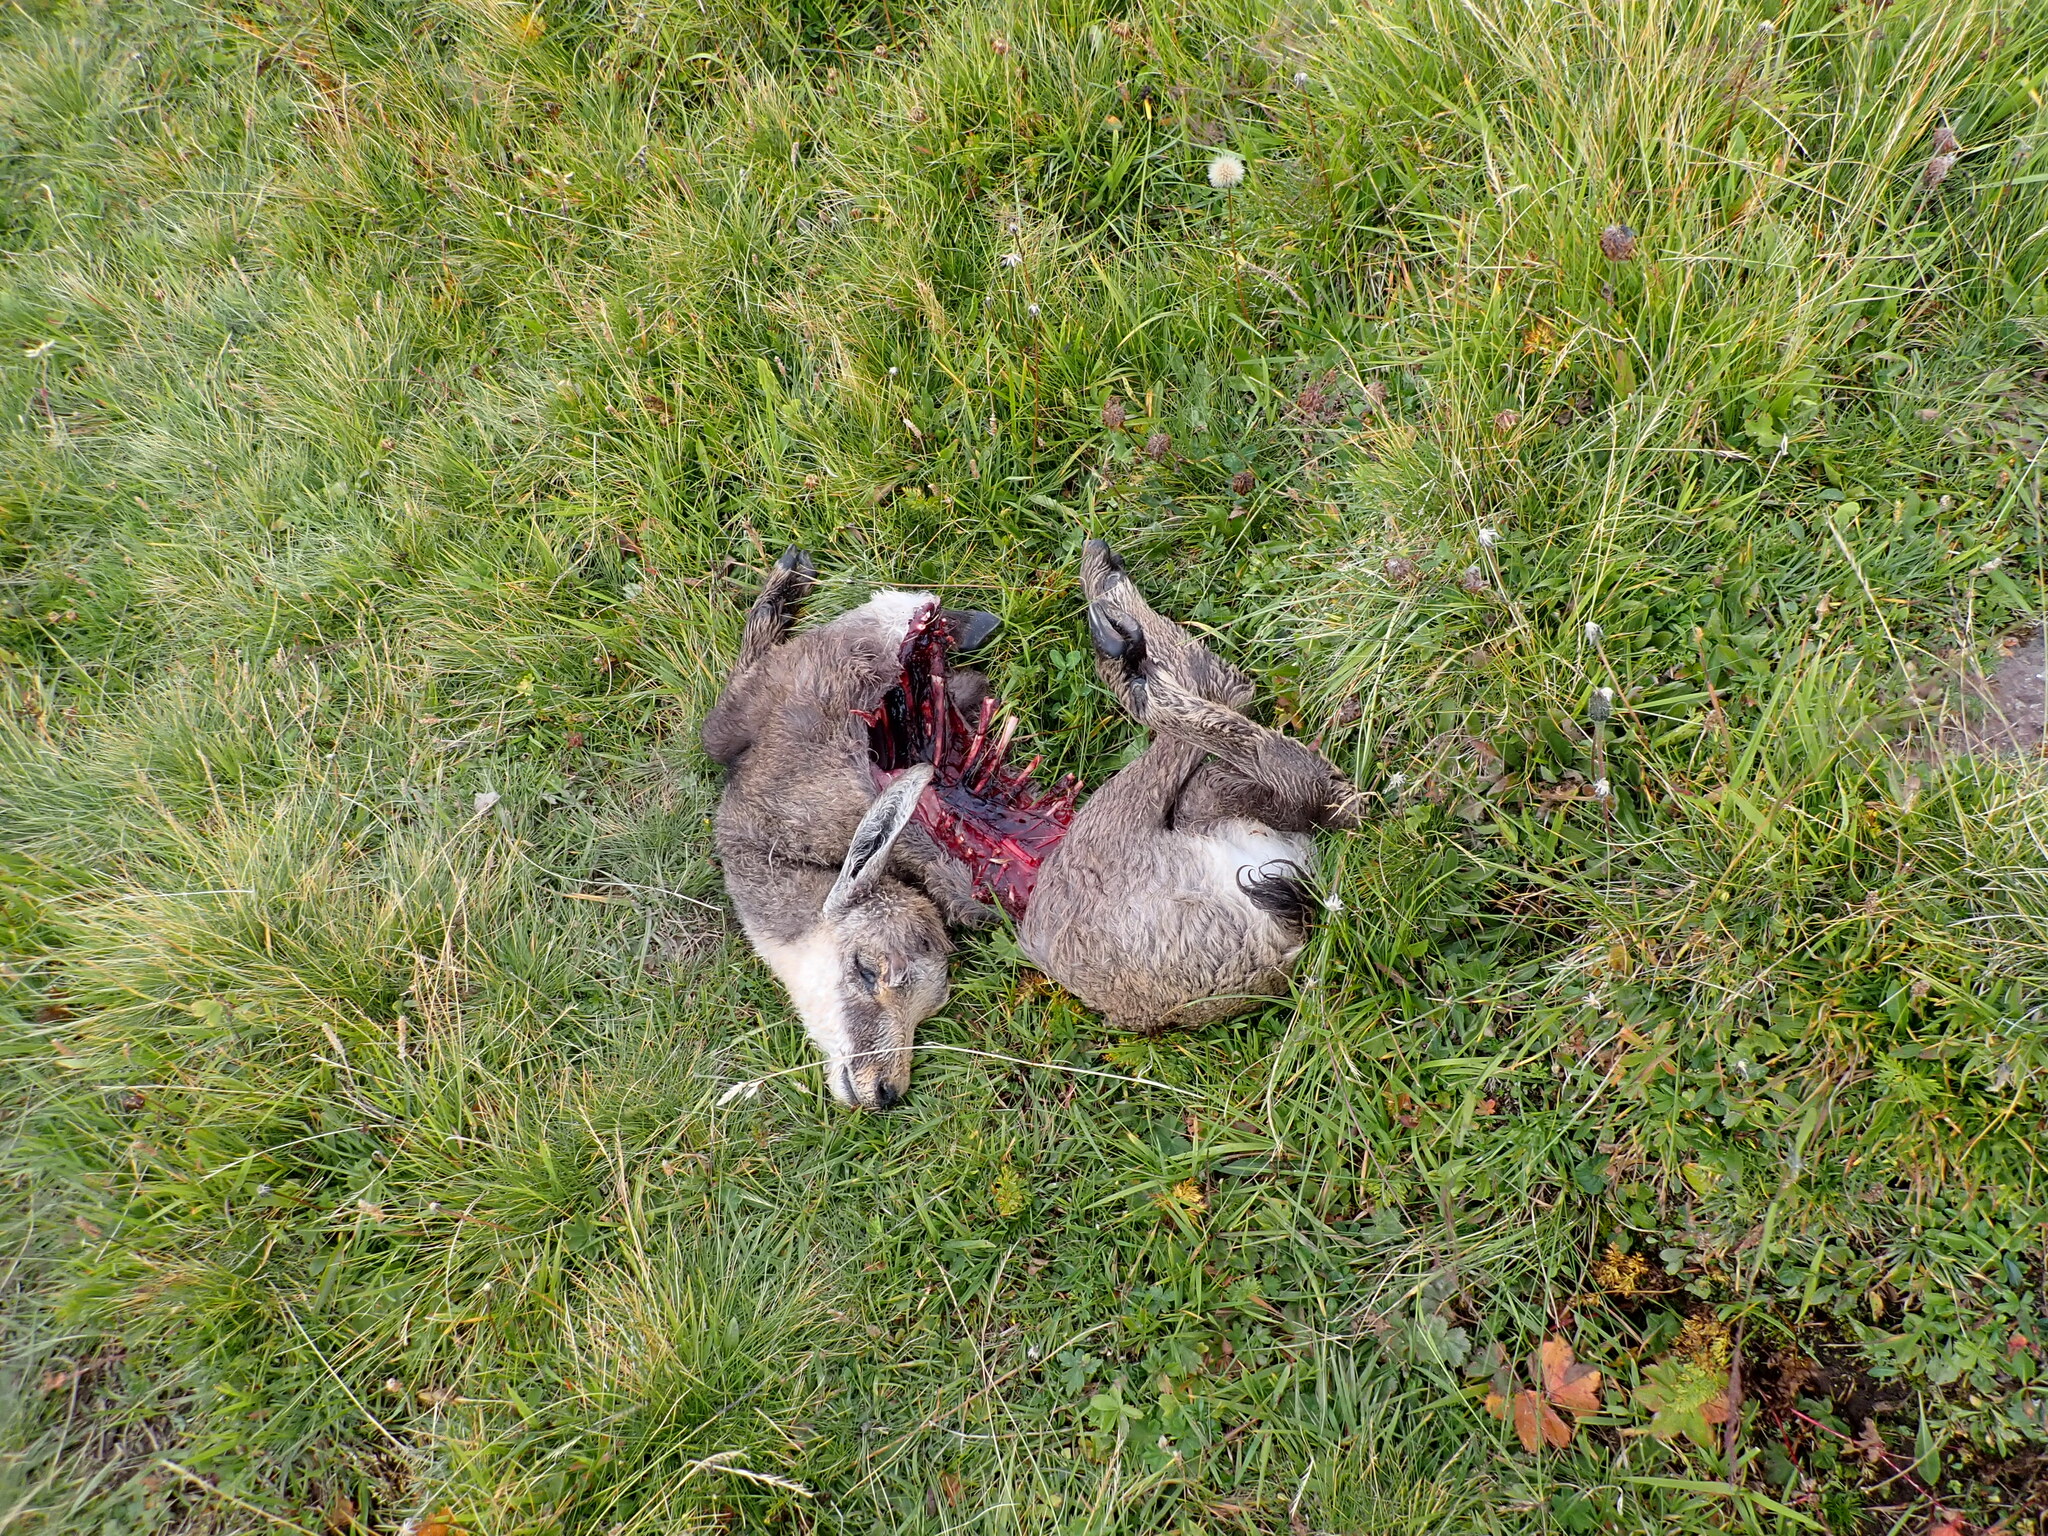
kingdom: Animalia
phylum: Chordata
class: Mammalia
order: Artiodactyla
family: Bovidae
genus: Rupicapra
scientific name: Rupicapra rupicapra
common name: Chamois
